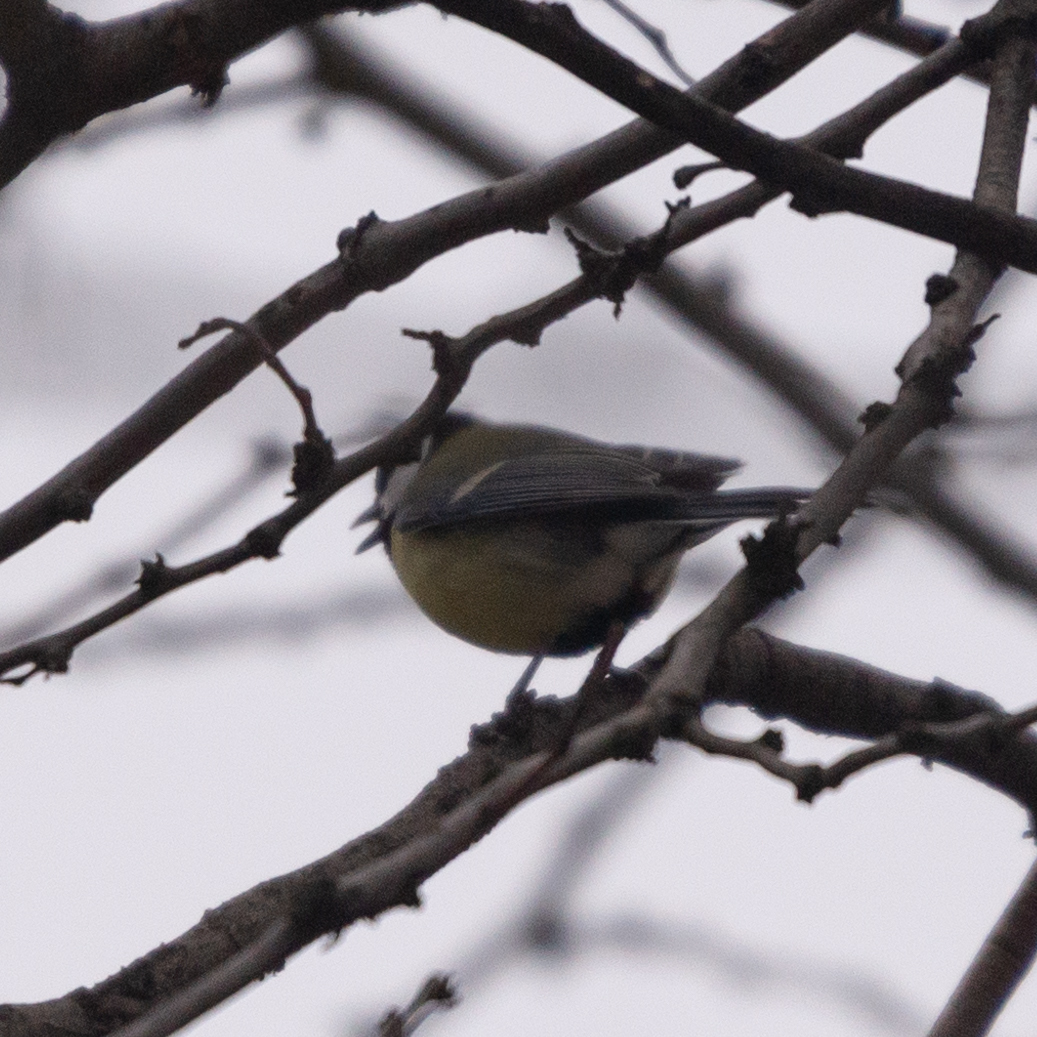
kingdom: Animalia
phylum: Chordata
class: Aves
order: Passeriformes
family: Paridae
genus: Parus
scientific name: Parus major
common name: Great tit
